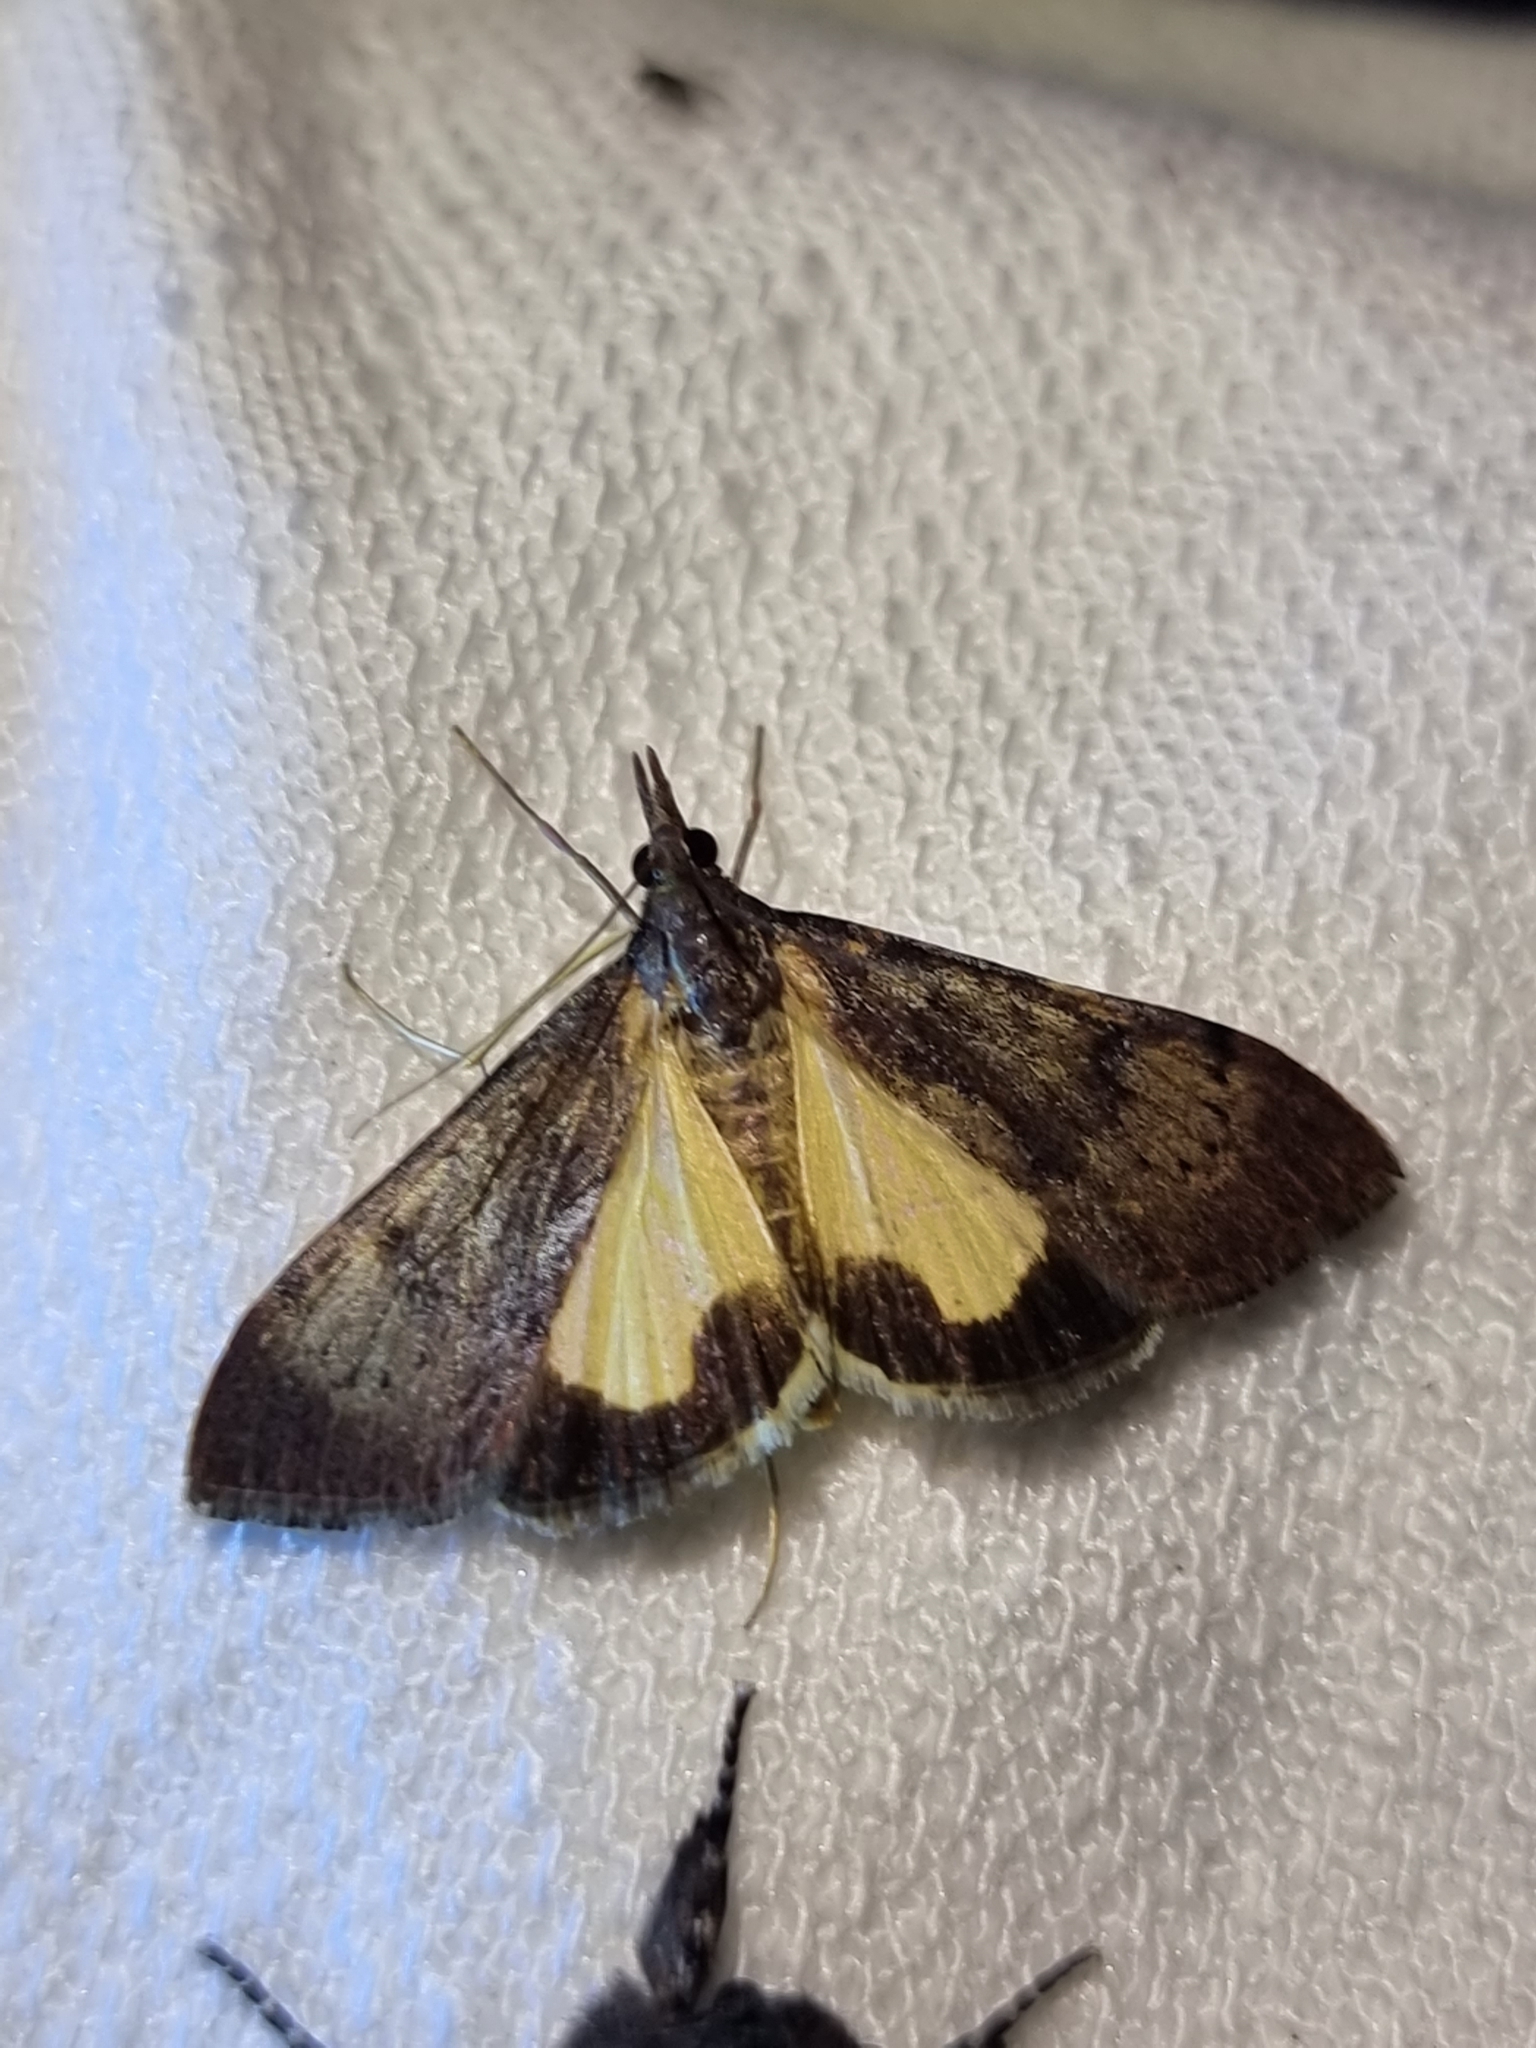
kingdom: Animalia
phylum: Arthropoda
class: Insecta
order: Lepidoptera
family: Crambidae
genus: Uresiphita
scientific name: Uresiphita ornithopteralis
